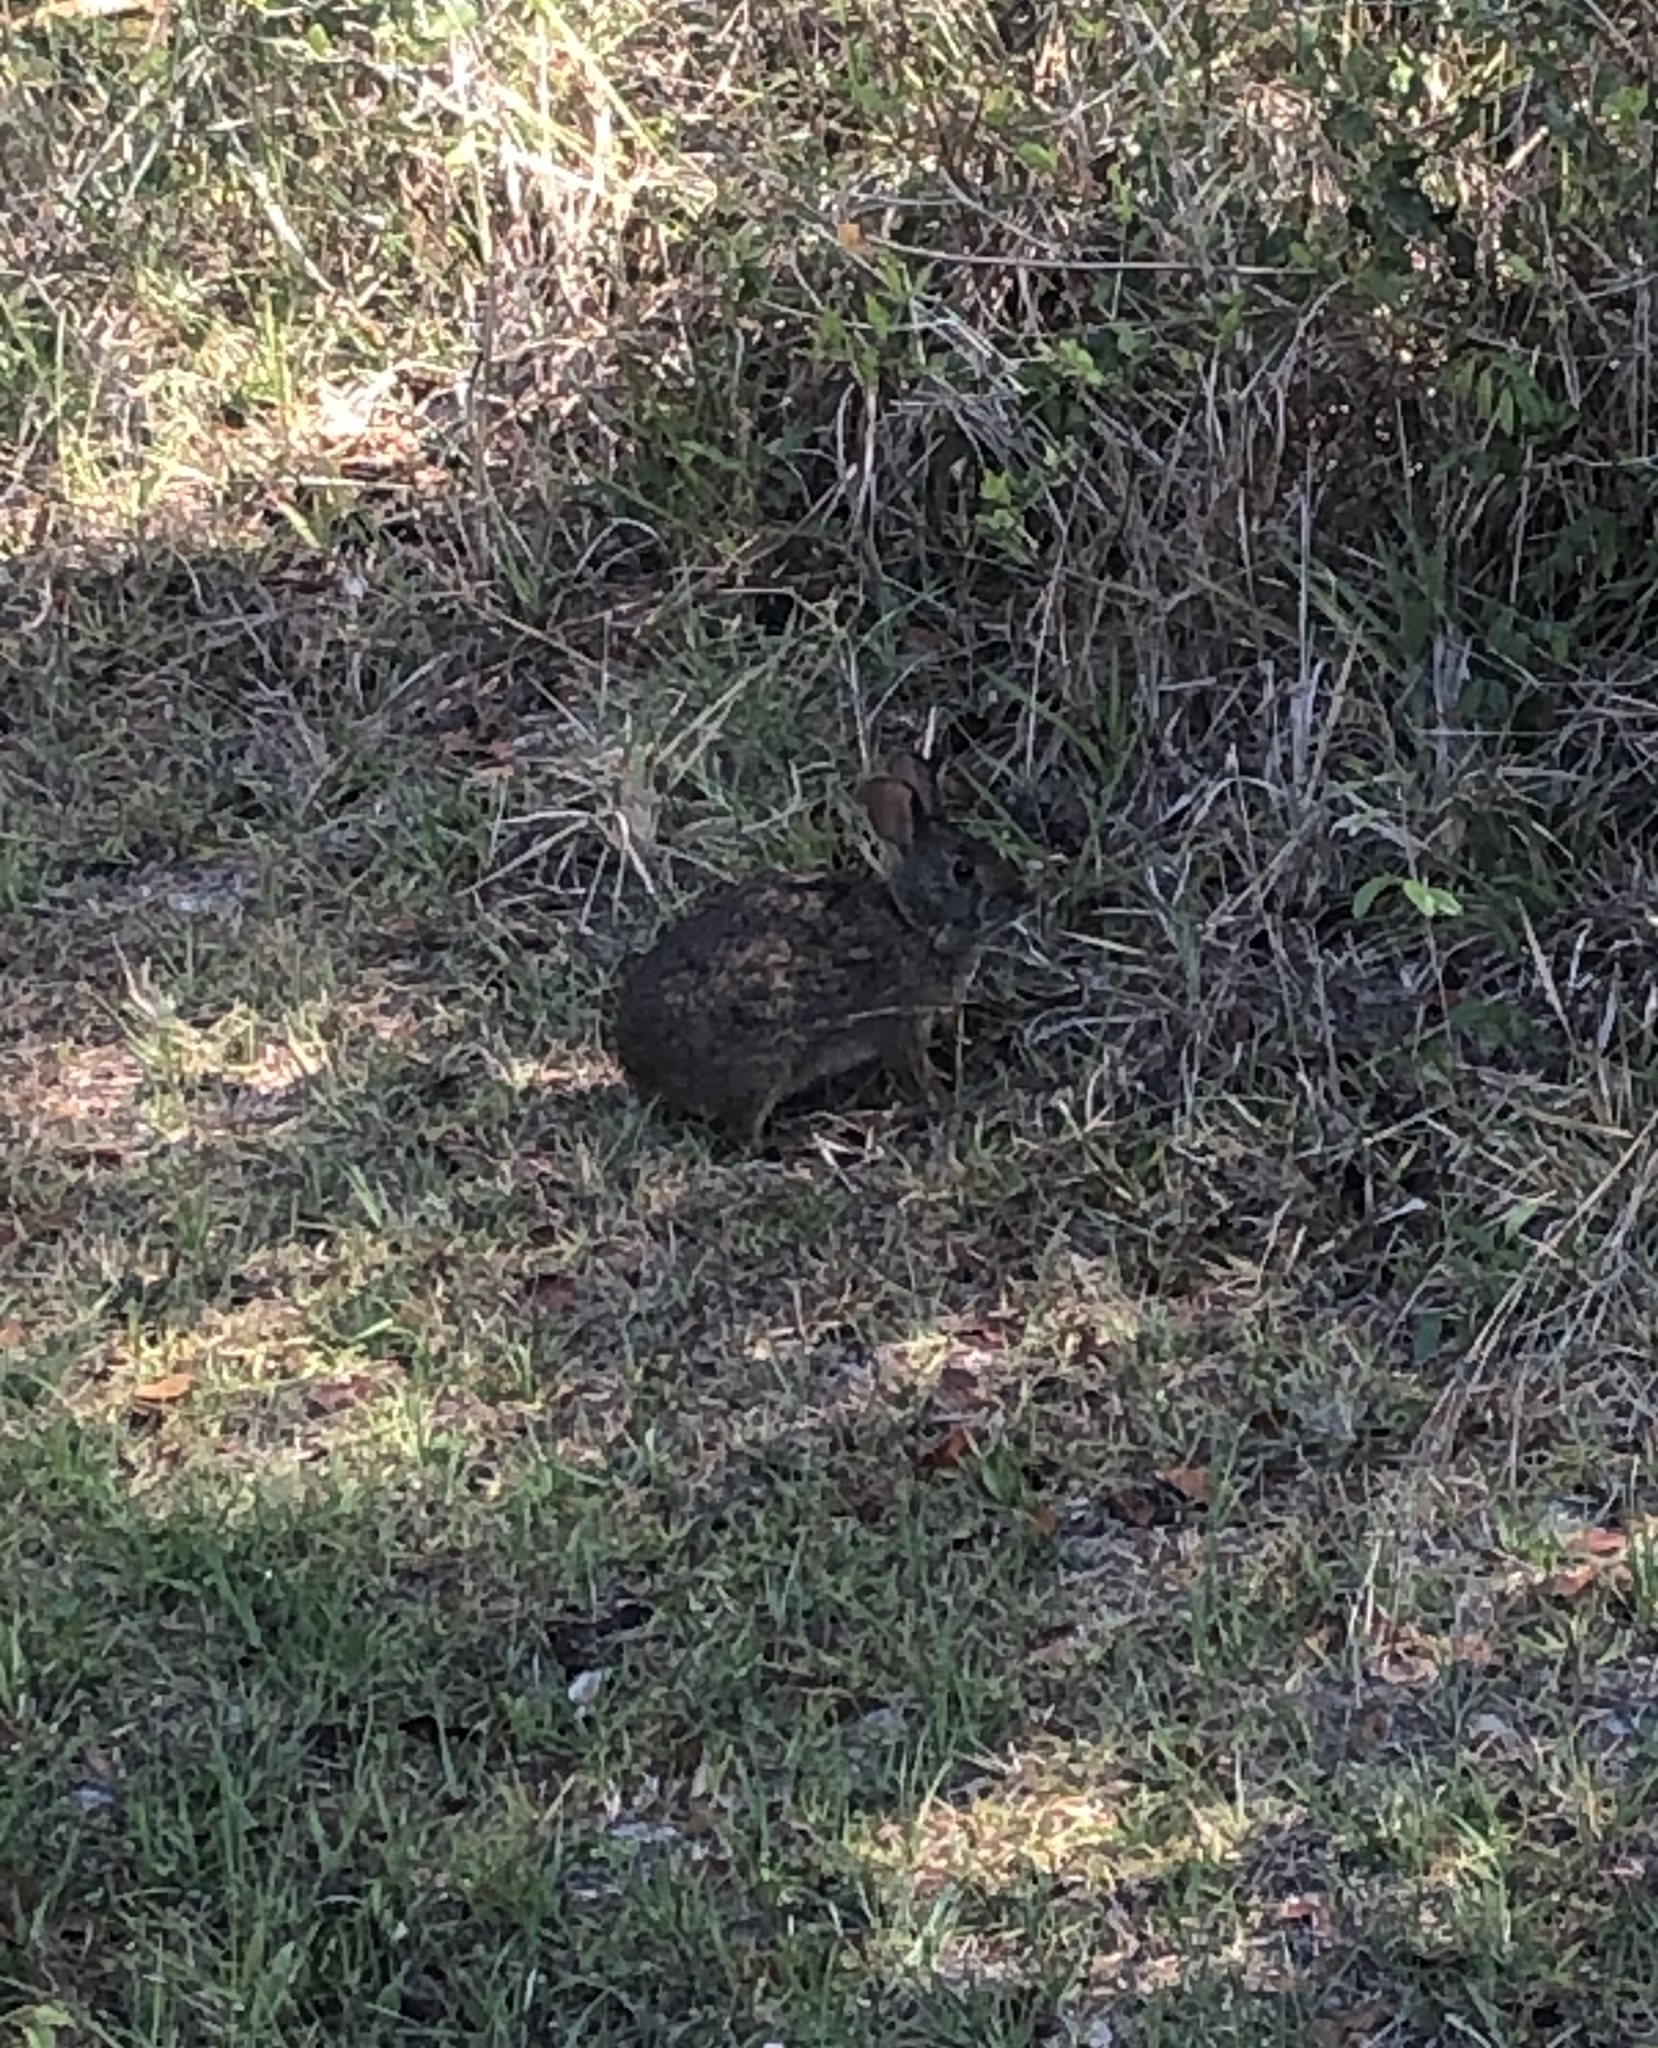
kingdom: Animalia
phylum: Chordata
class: Mammalia
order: Lagomorpha
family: Leporidae
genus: Sylvilagus
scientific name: Sylvilagus palustris
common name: Marsh rabbit
